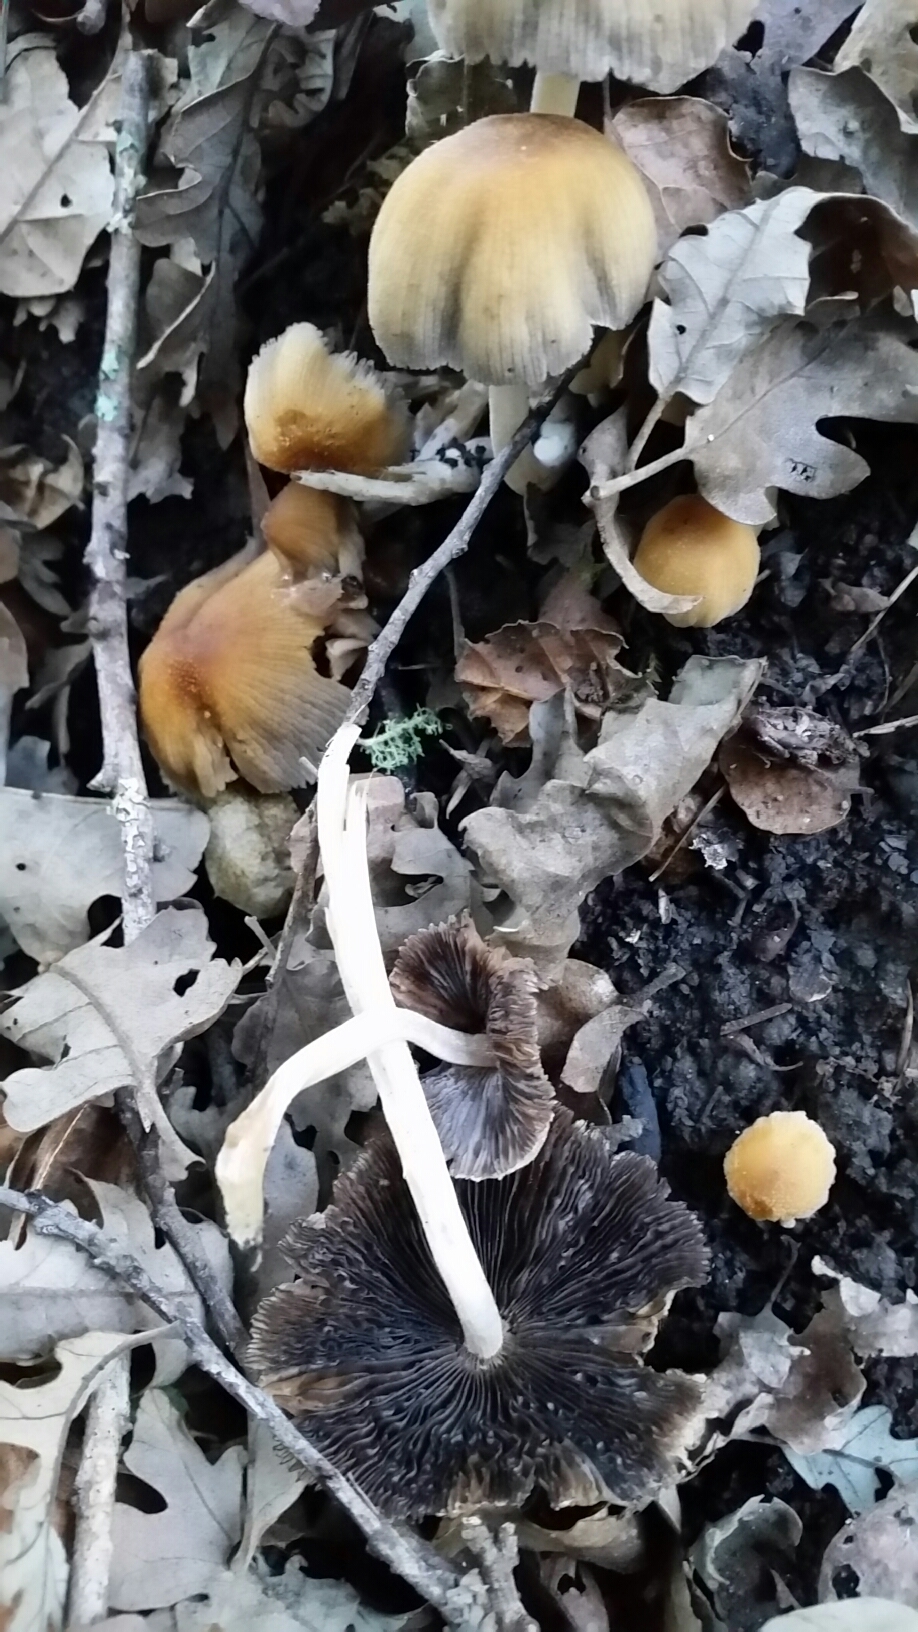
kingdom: Fungi
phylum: Basidiomycota
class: Agaricomycetes
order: Agaricales
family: Psathyrellaceae
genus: Coprinellus
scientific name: Coprinellus micaceus
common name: Glistening ink-cap
